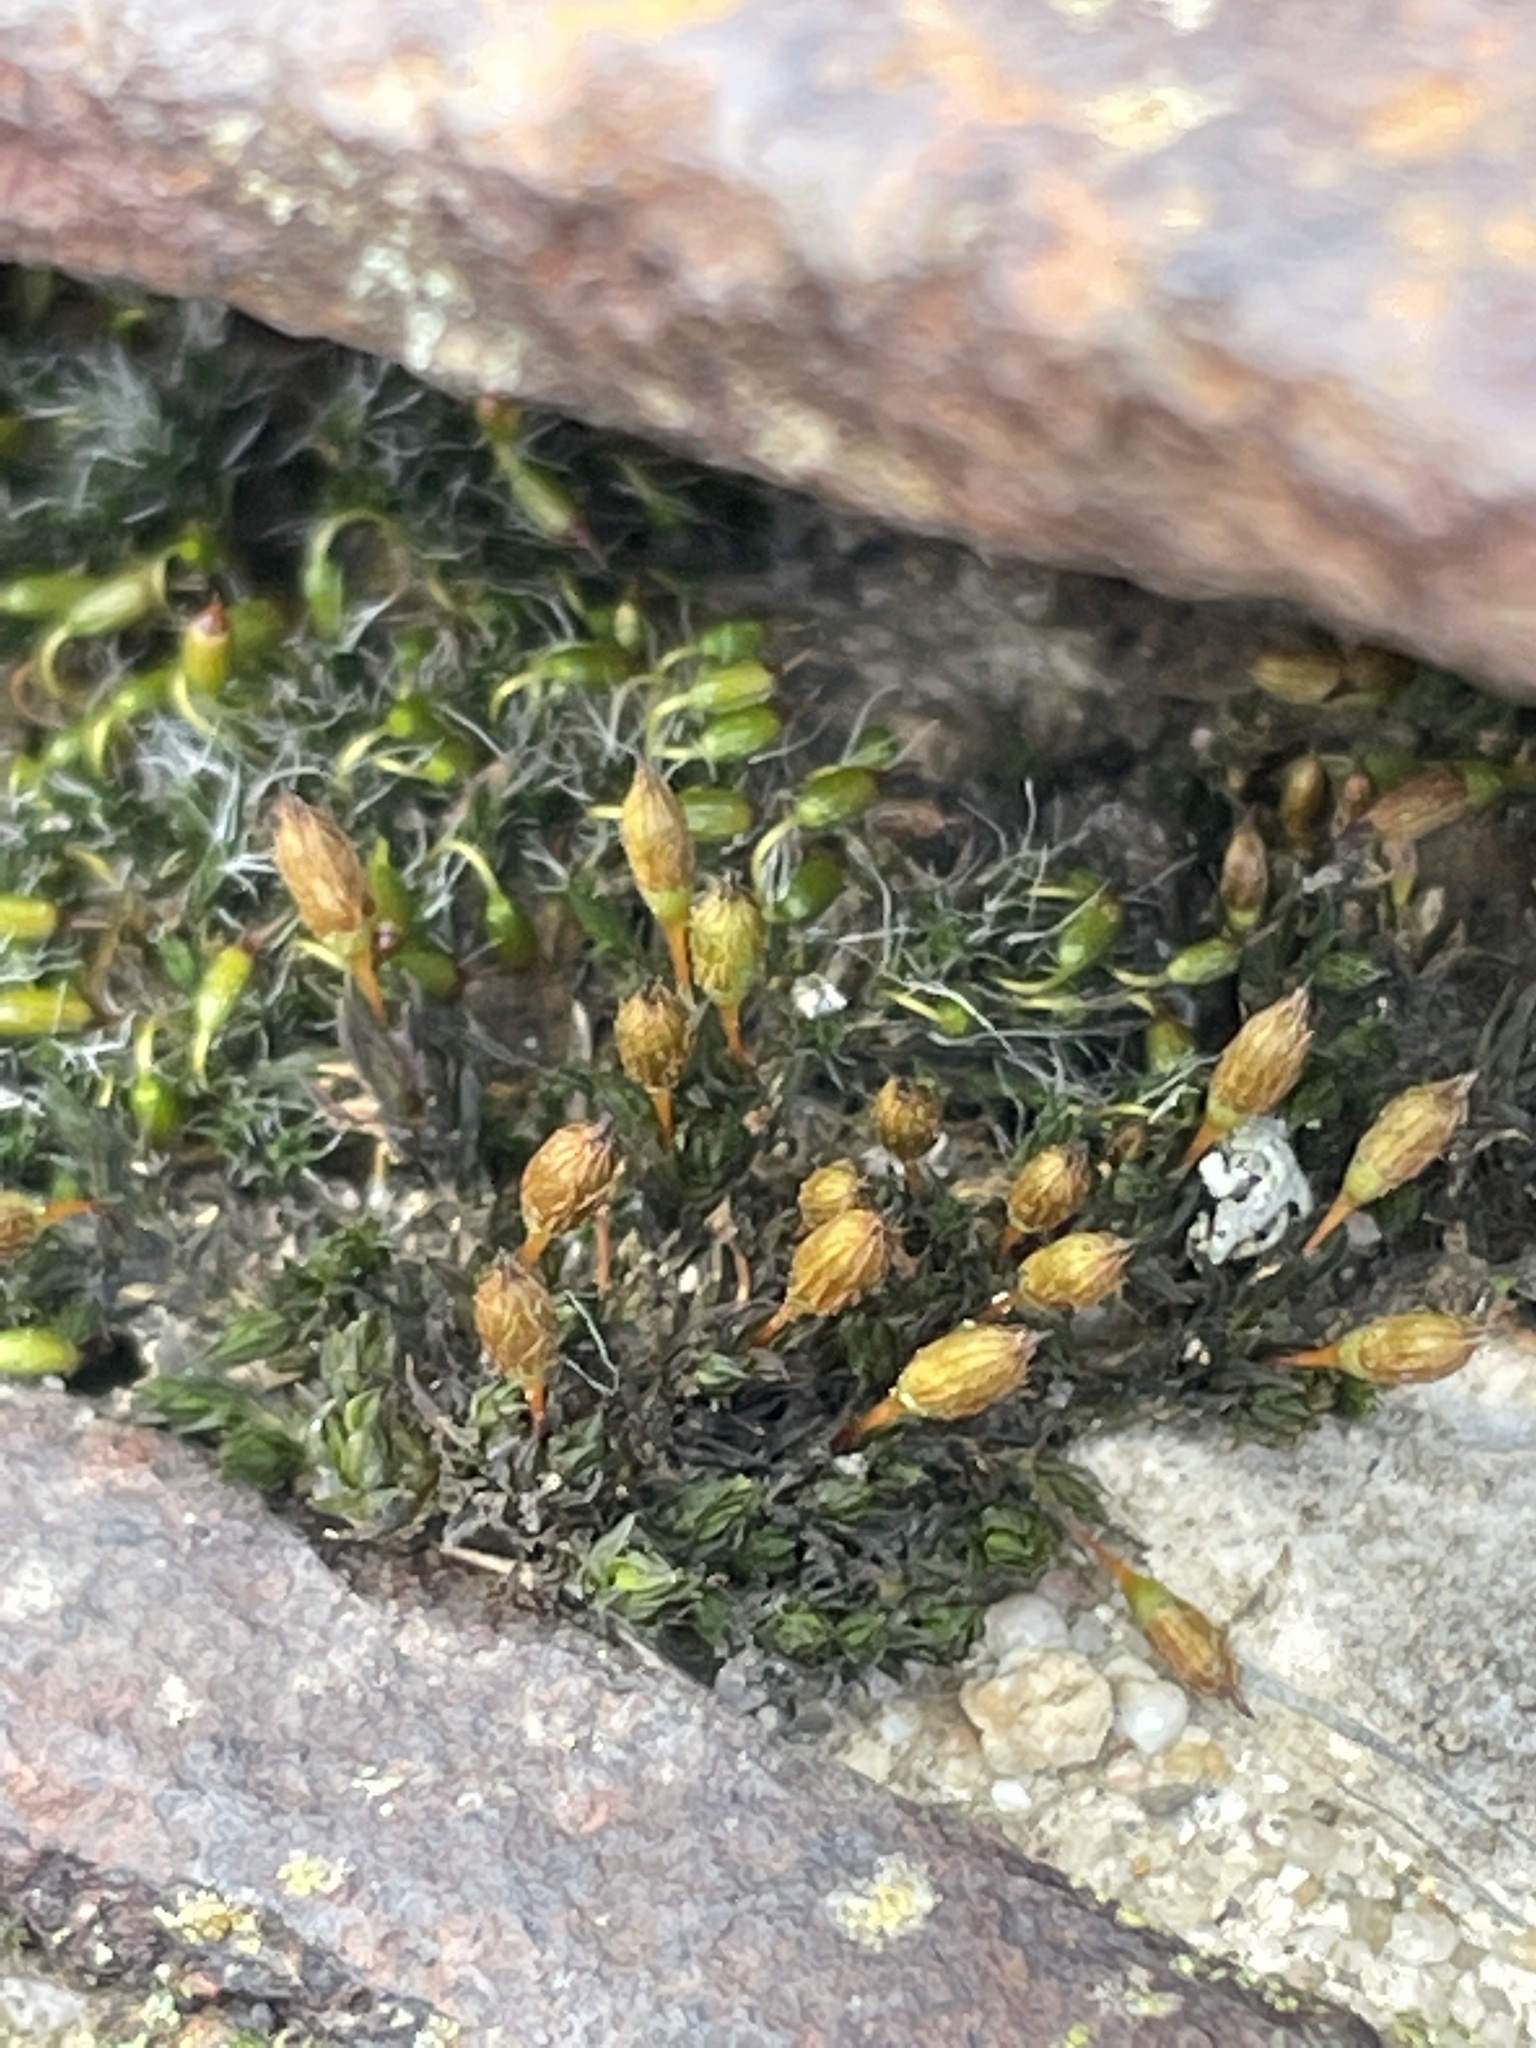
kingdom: Plantae
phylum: Bryophyta
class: Bryopsida
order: Orthotrichales
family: Orthotrichaceae
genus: Orthotrichum
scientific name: Orthotrichum anomalum
